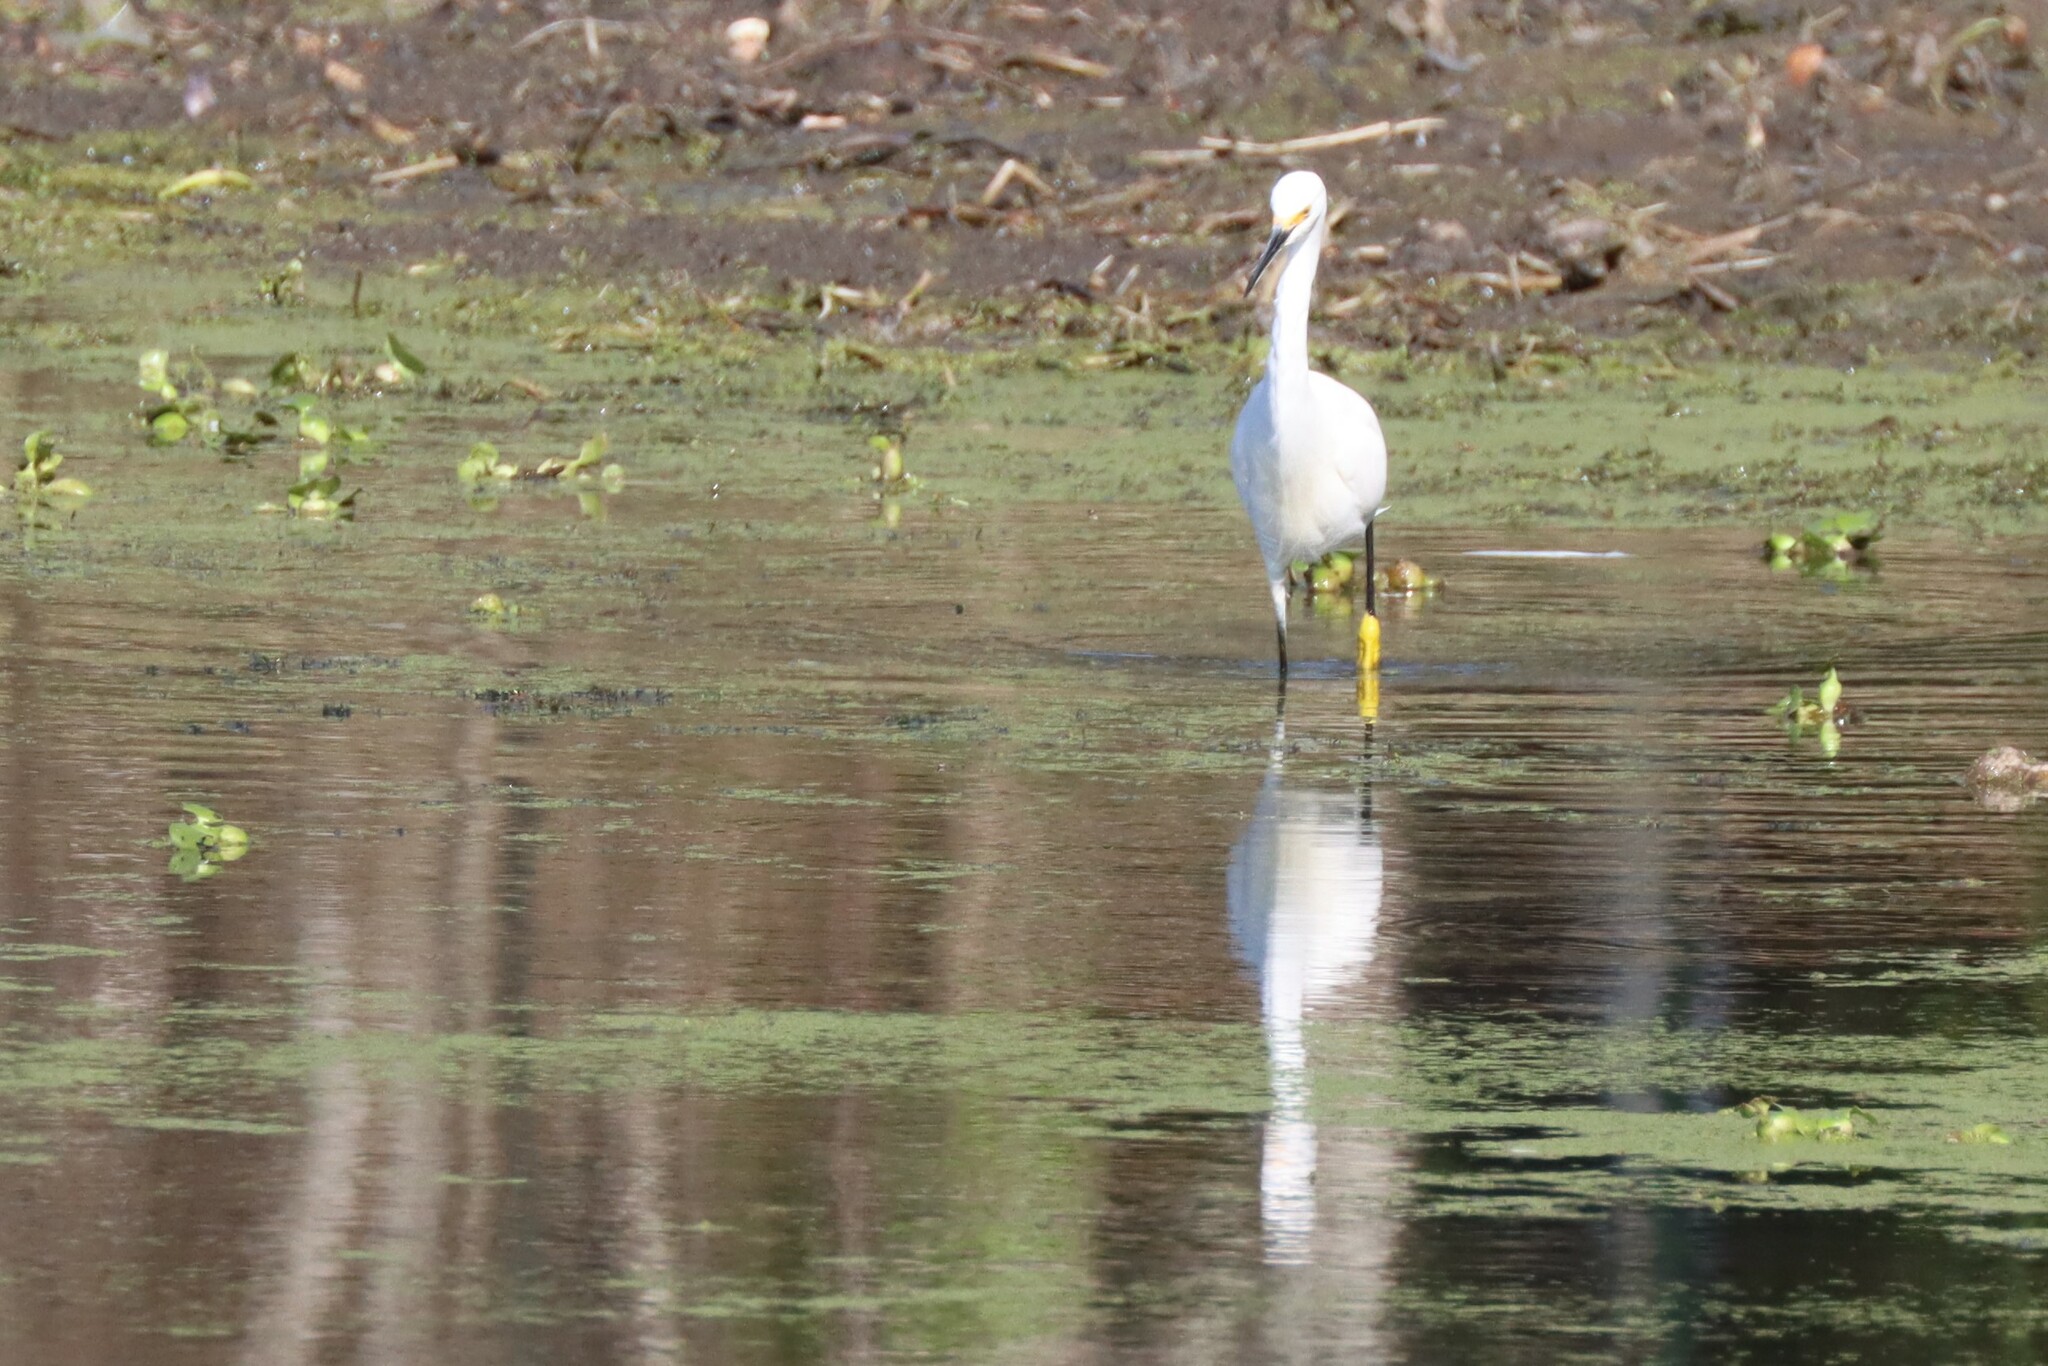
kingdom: Animalia
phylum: Chordata
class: Aves
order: Pelecaniformes
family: Ardeidae
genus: Egretta
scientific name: Egretta thula
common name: Snowy egret
